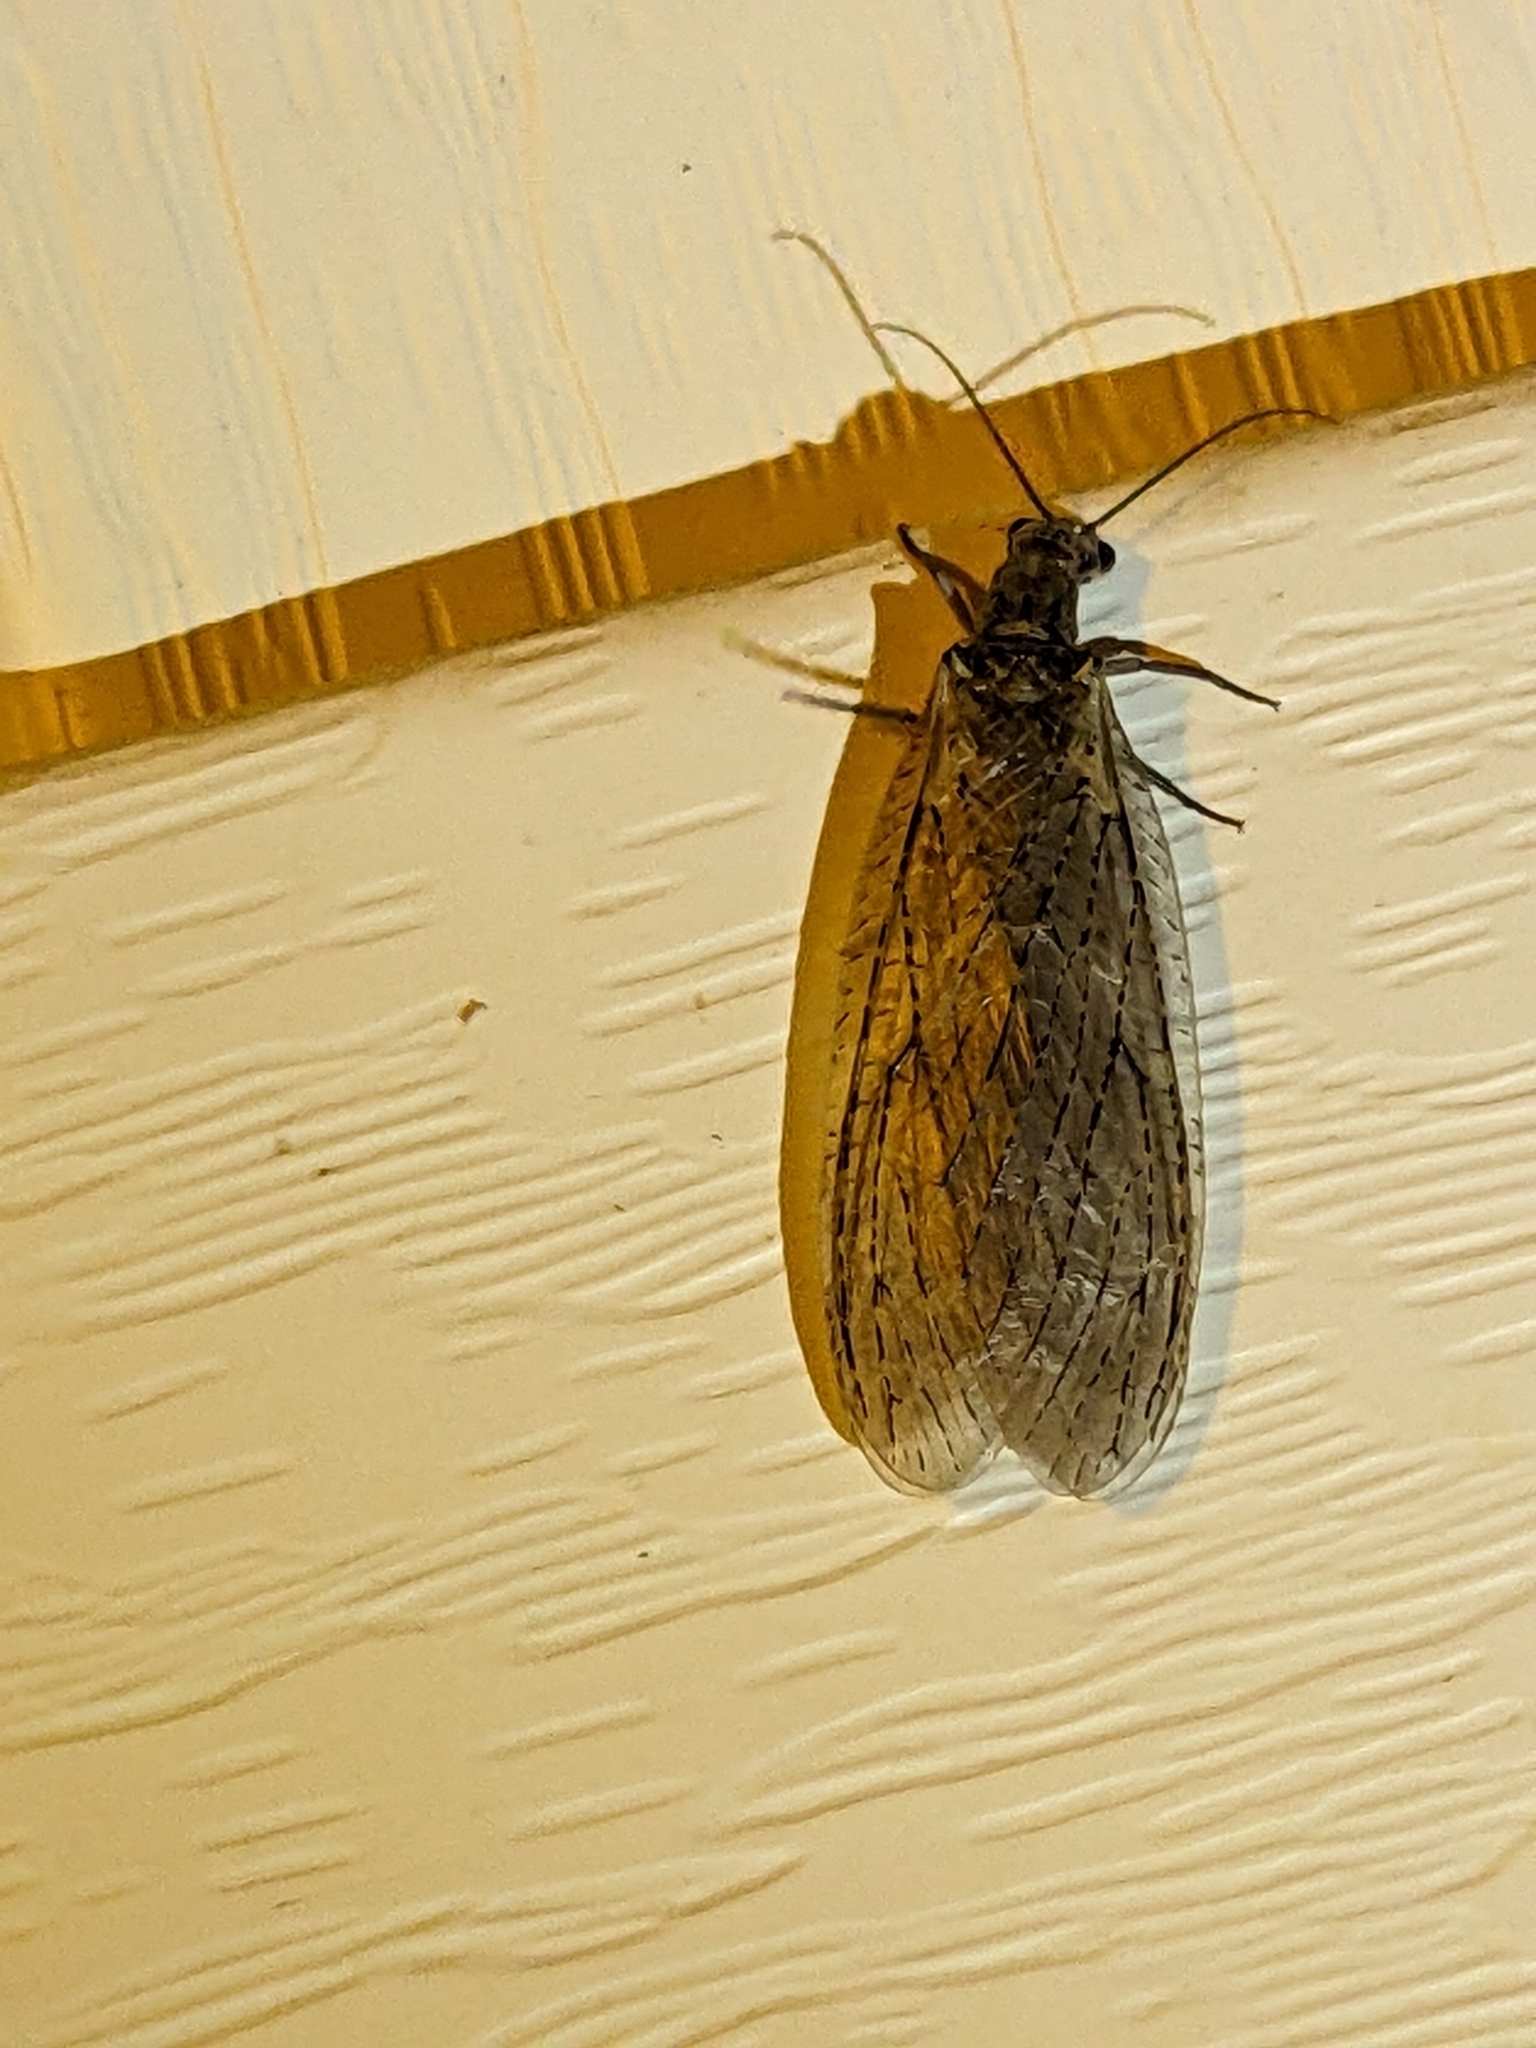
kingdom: Animalia
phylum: Arthropoda
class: Insecta
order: Megaloptera
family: Corydalidae
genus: Chauliodes
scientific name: Chauliodes rastricornis
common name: Spring fishfly
